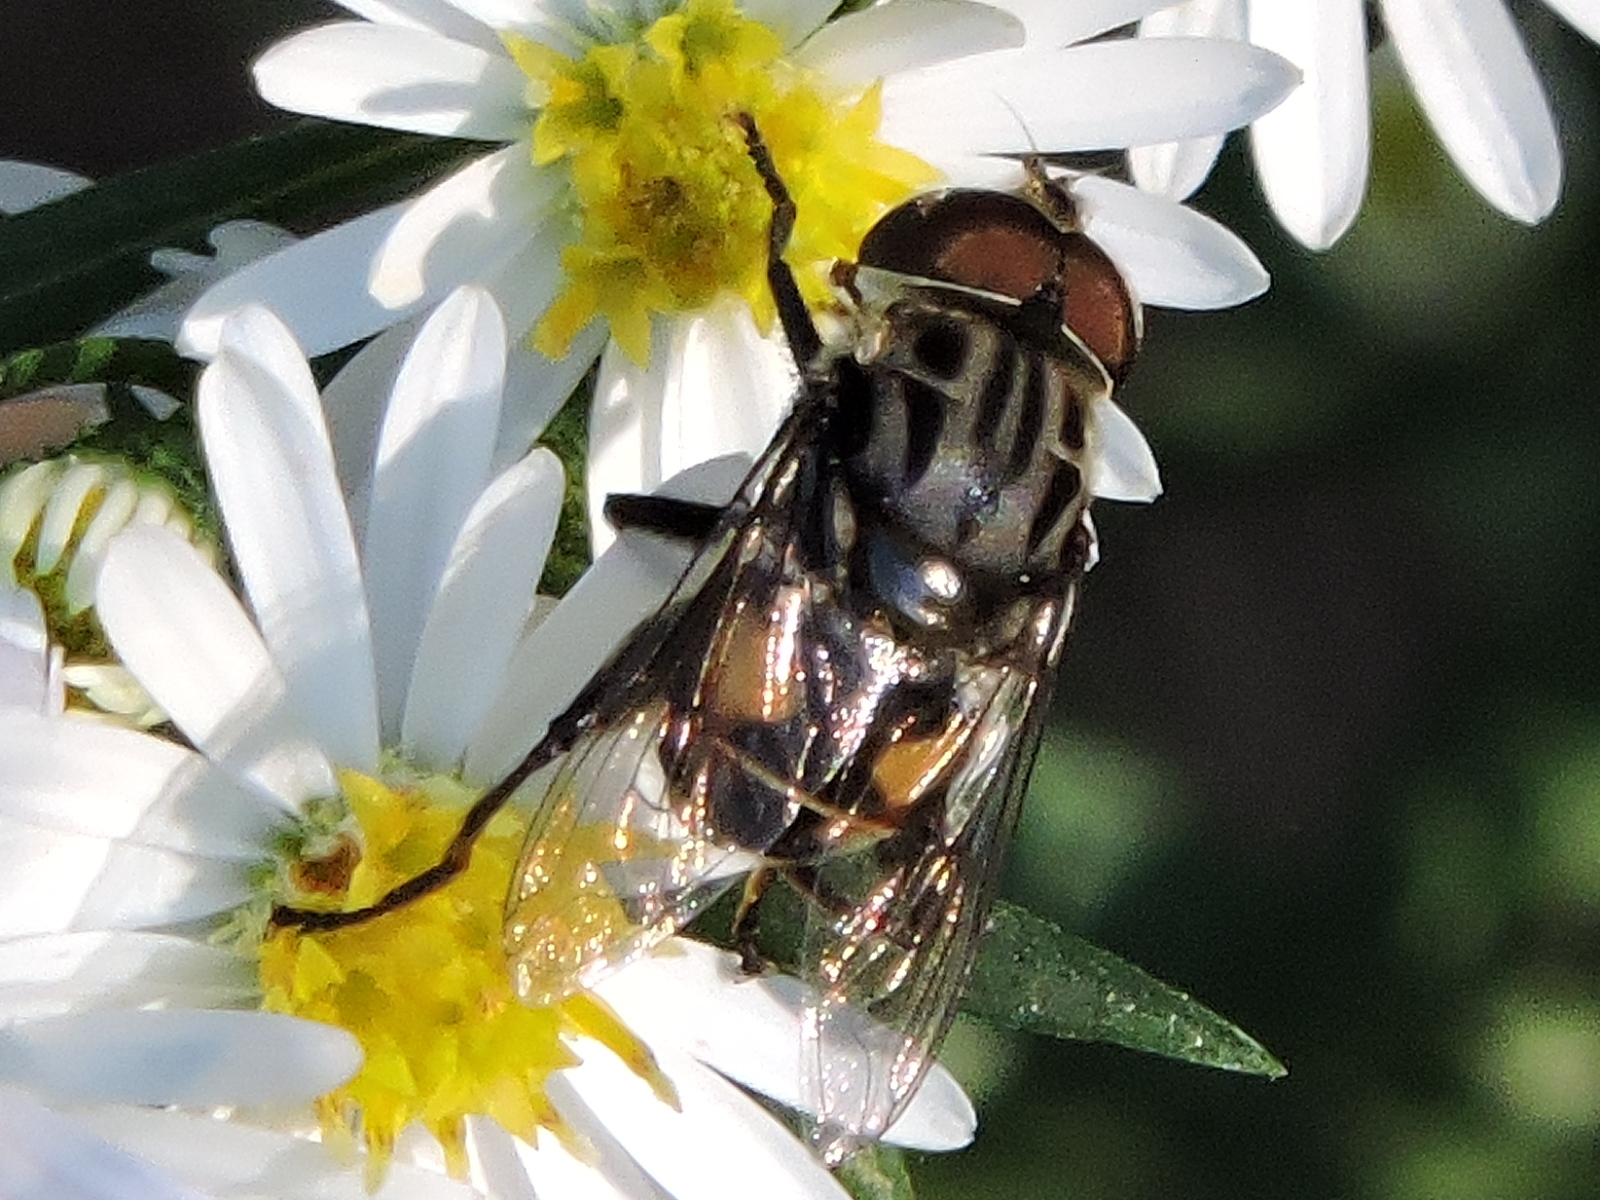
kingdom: Animalia
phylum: Arthropoda
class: Insecta
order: Diptera
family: Syrphidae
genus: Palpada
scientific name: Palpada furcata
